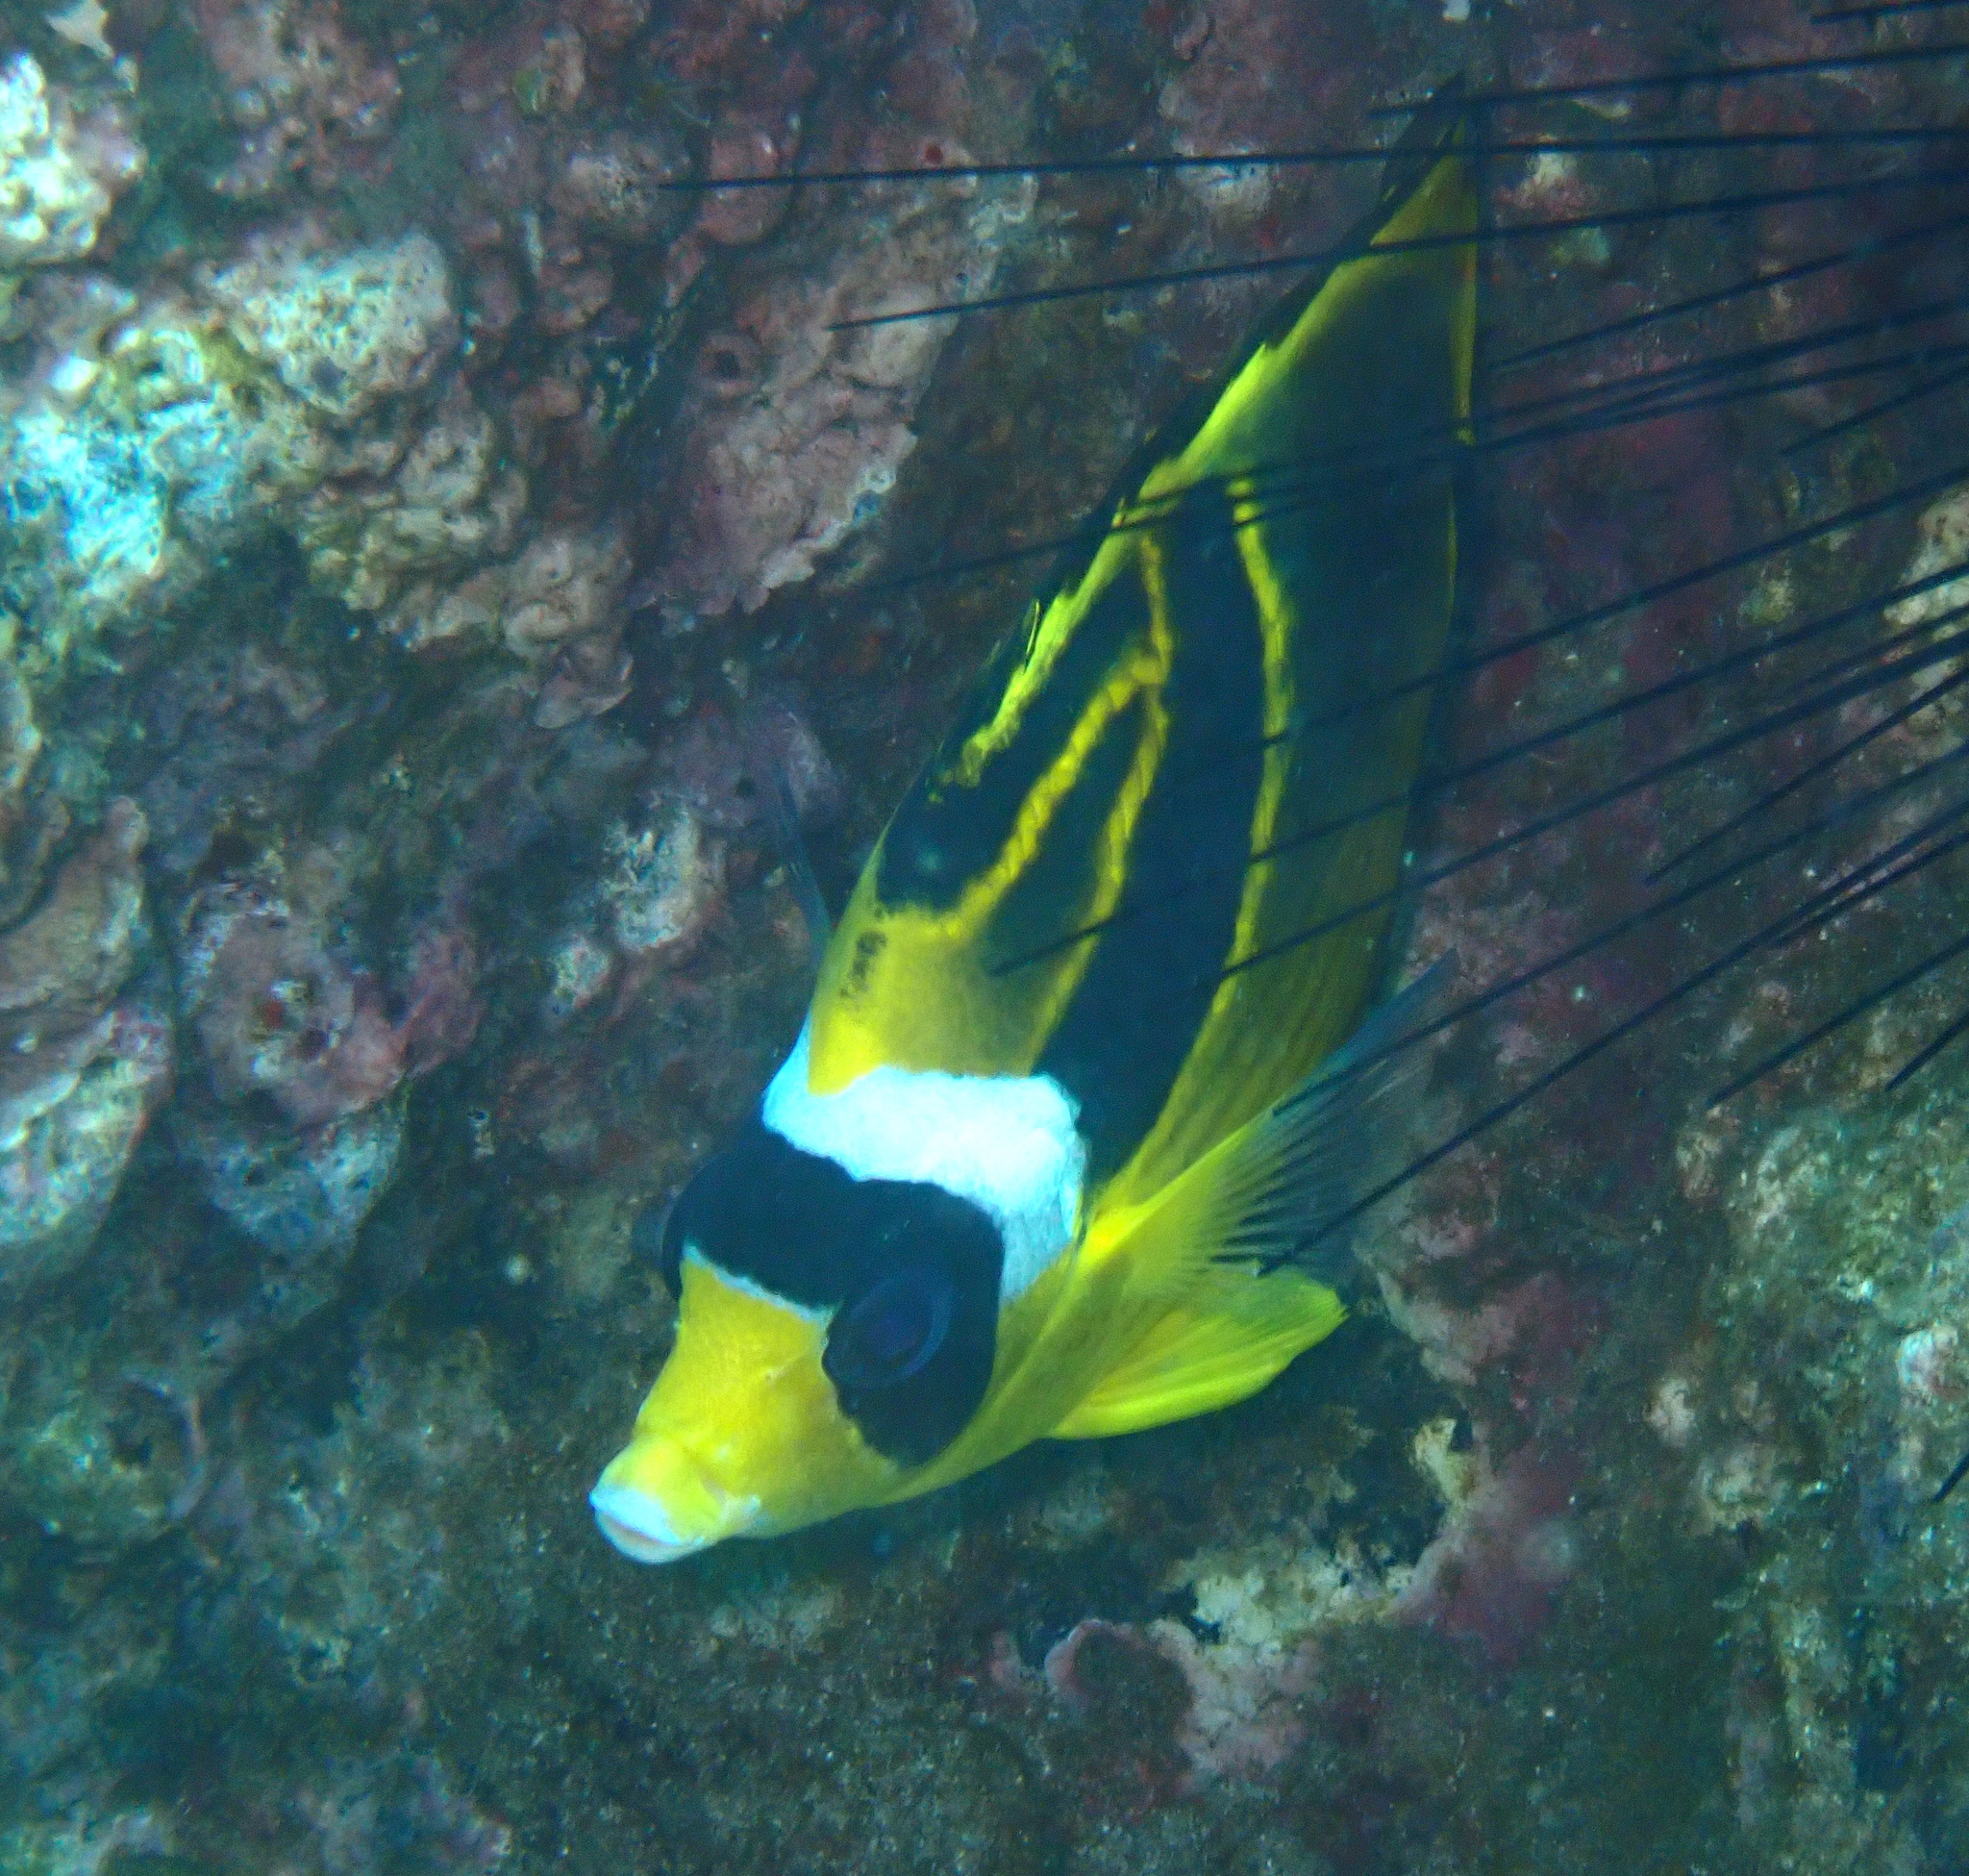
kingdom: Animalia
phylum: Chordata
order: Perciformes
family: Chaetodontidae
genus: Chaetodon
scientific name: Chaetodon lunula
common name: Raccoon butterflyfish
